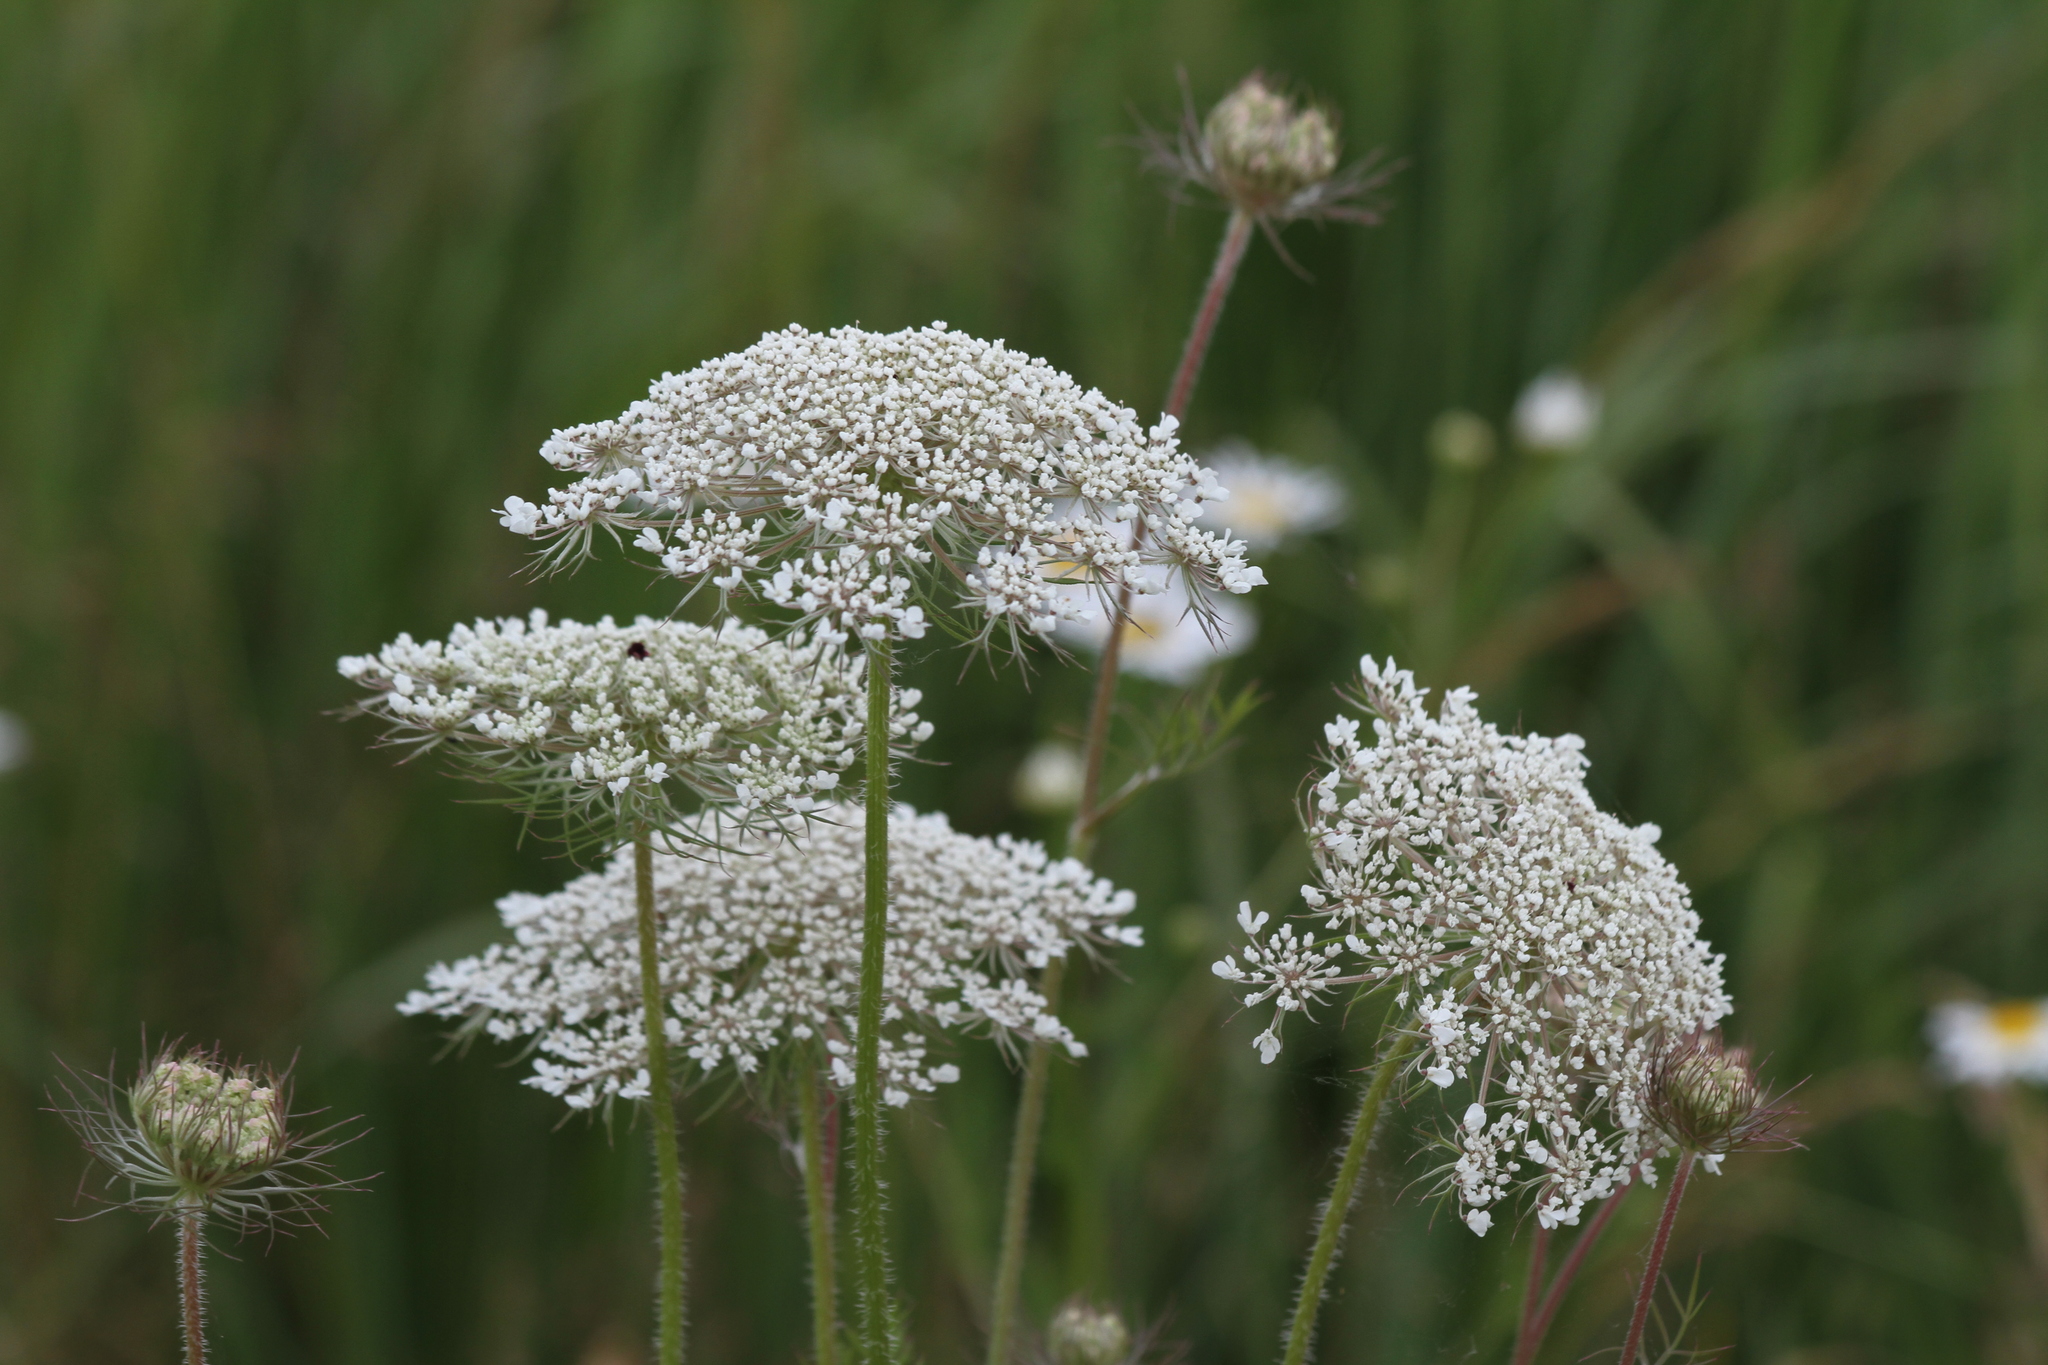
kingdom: Plantae
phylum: Tracheophyta
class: Magnoliopsida
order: Apiales
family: Apiaceae
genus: Daucus
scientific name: Daucus carota
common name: Wild carrot
